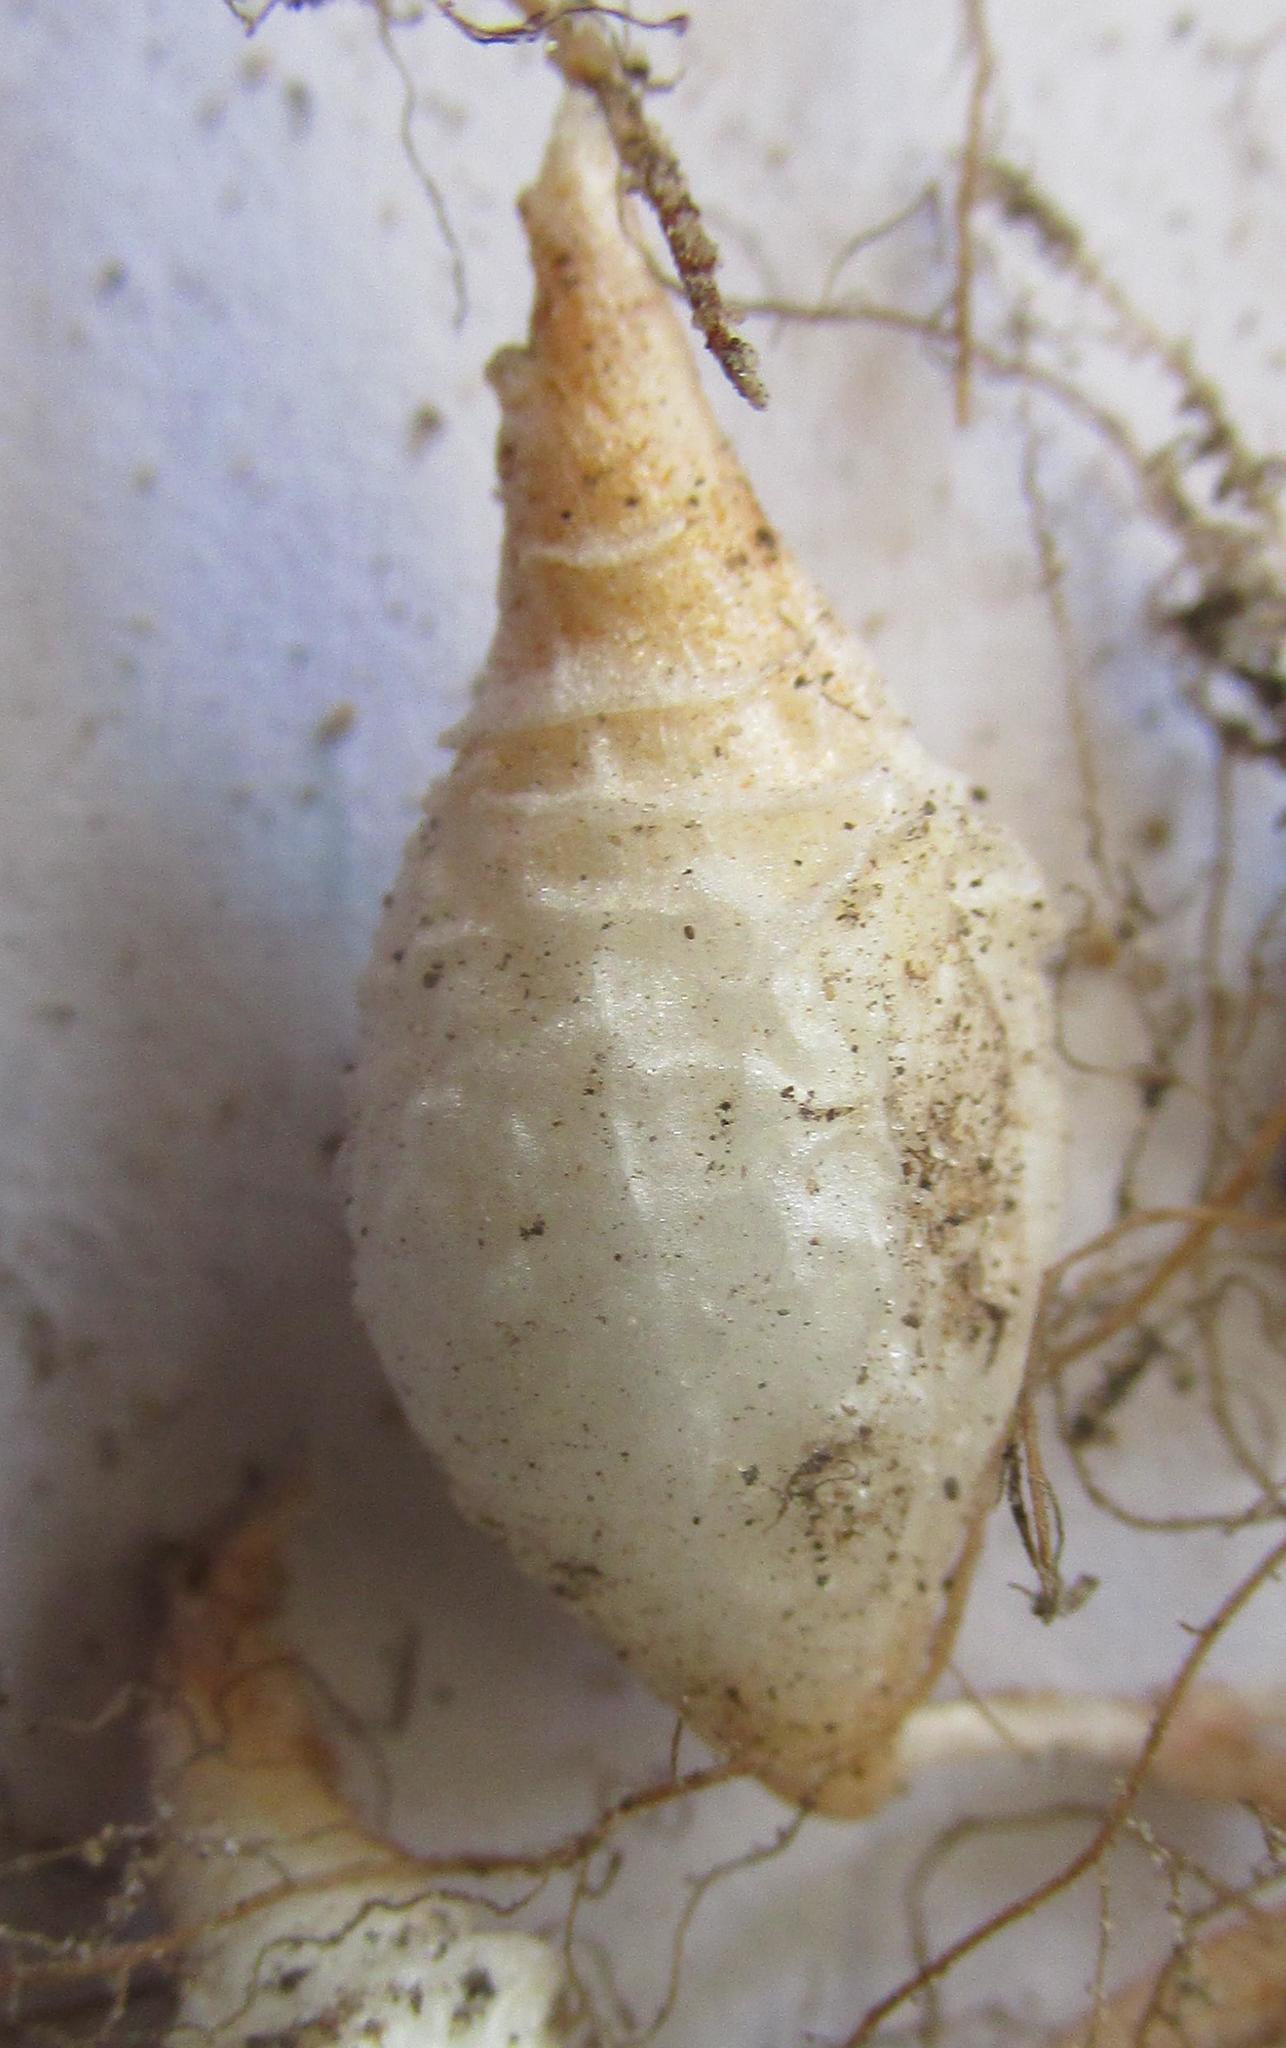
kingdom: Plantae
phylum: Tracheophyta
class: Magnoliopsida
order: Oxalidales
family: Oxalidaceae
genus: Oxalis
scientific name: Oxalis pulchella
